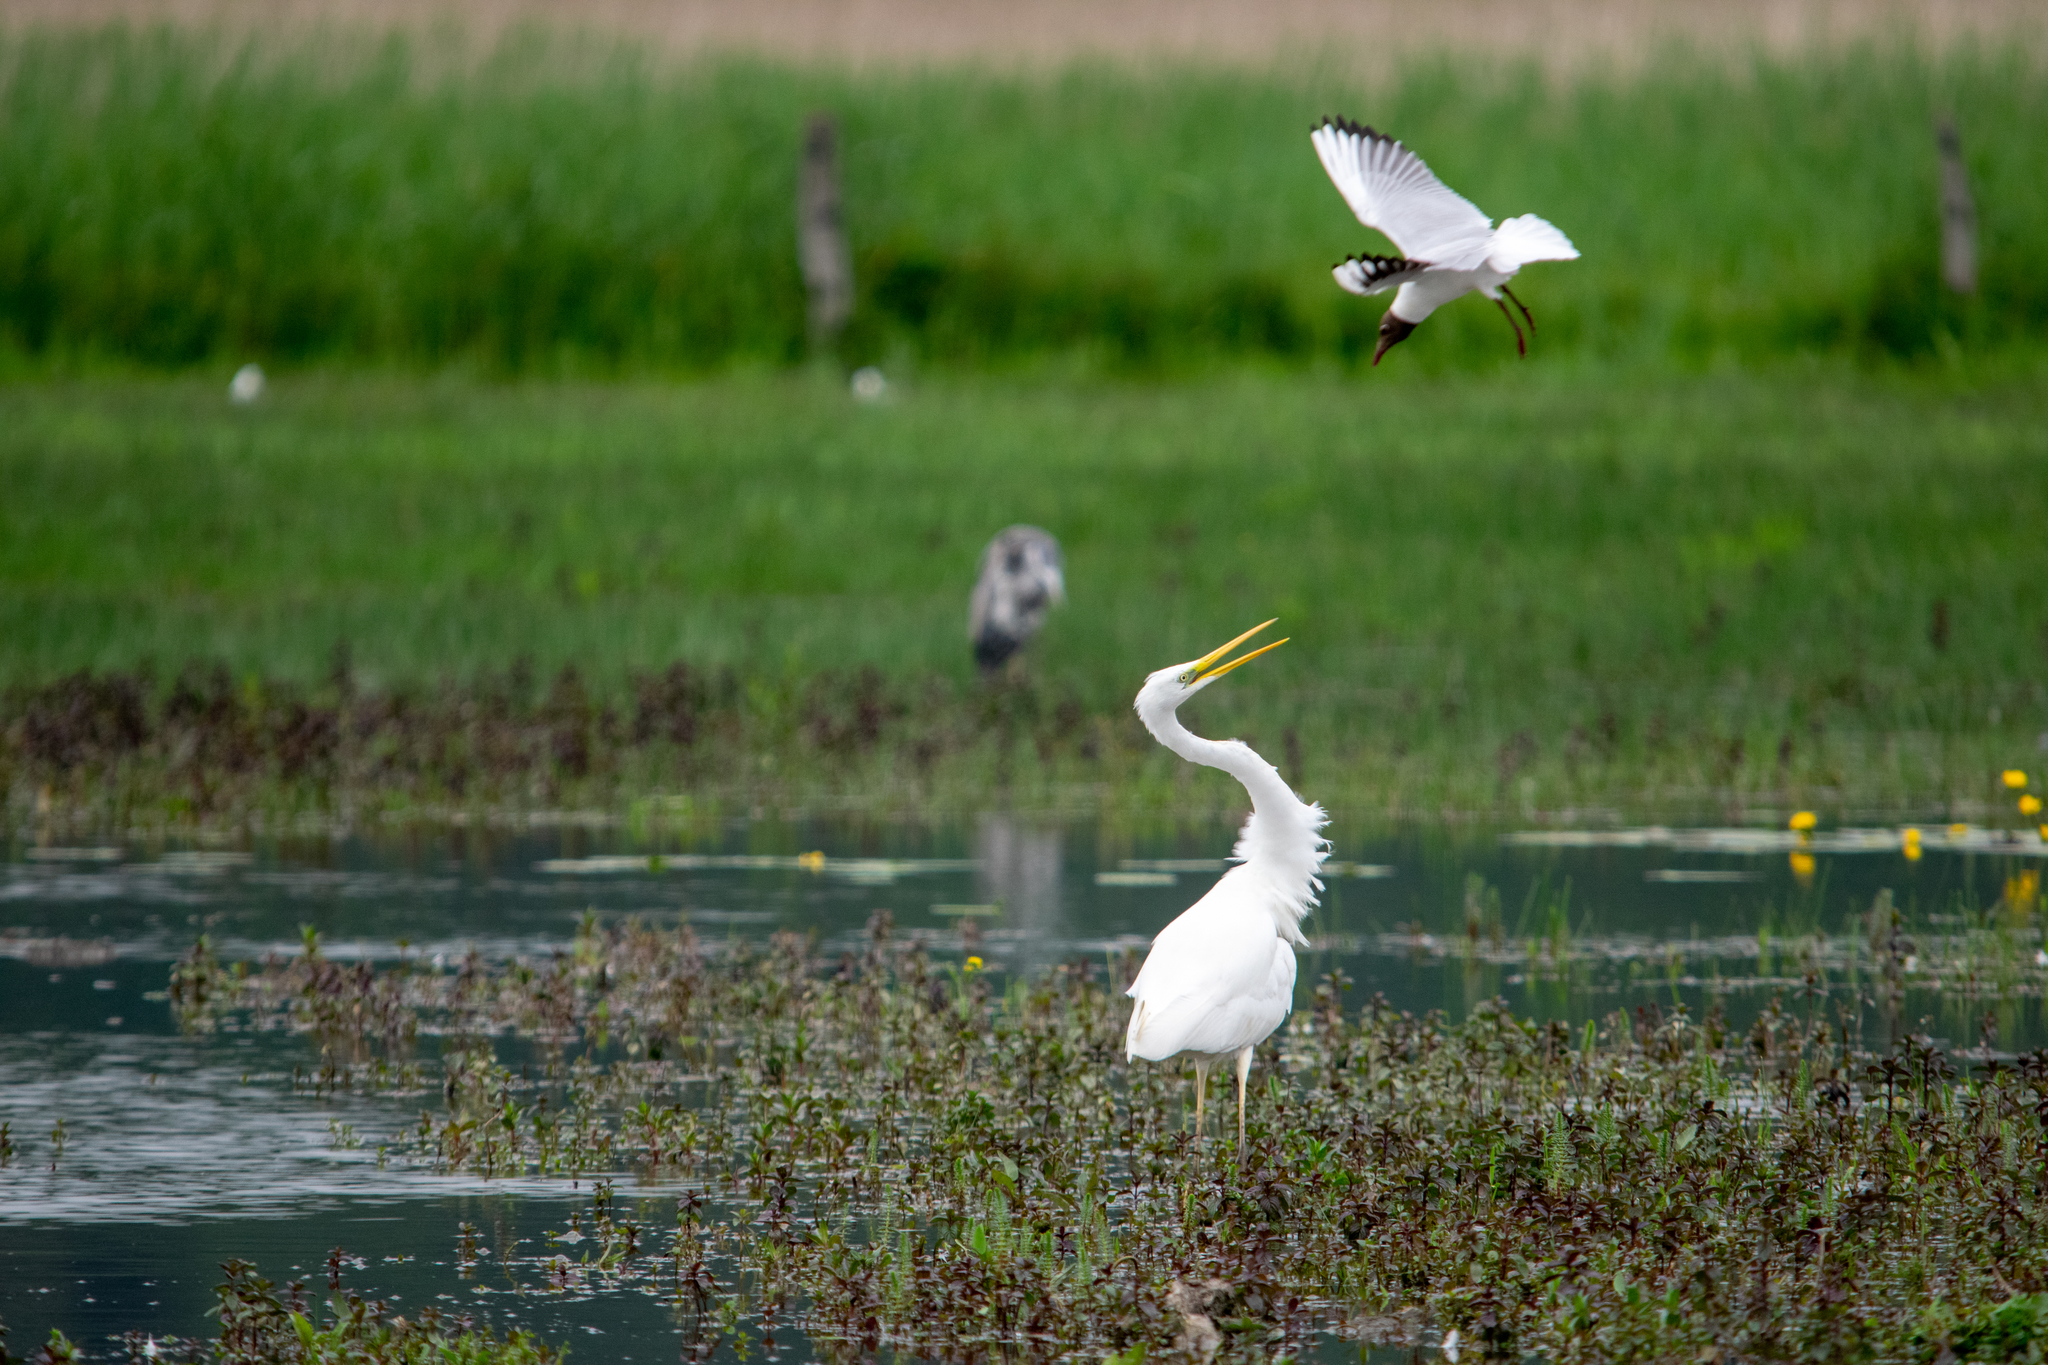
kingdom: Animalia
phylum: Chordata
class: Aves
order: Charadriiformes
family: Laridae
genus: Chroicocephalus
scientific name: Chroicocephalus ridibundus
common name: Black-headed gull
